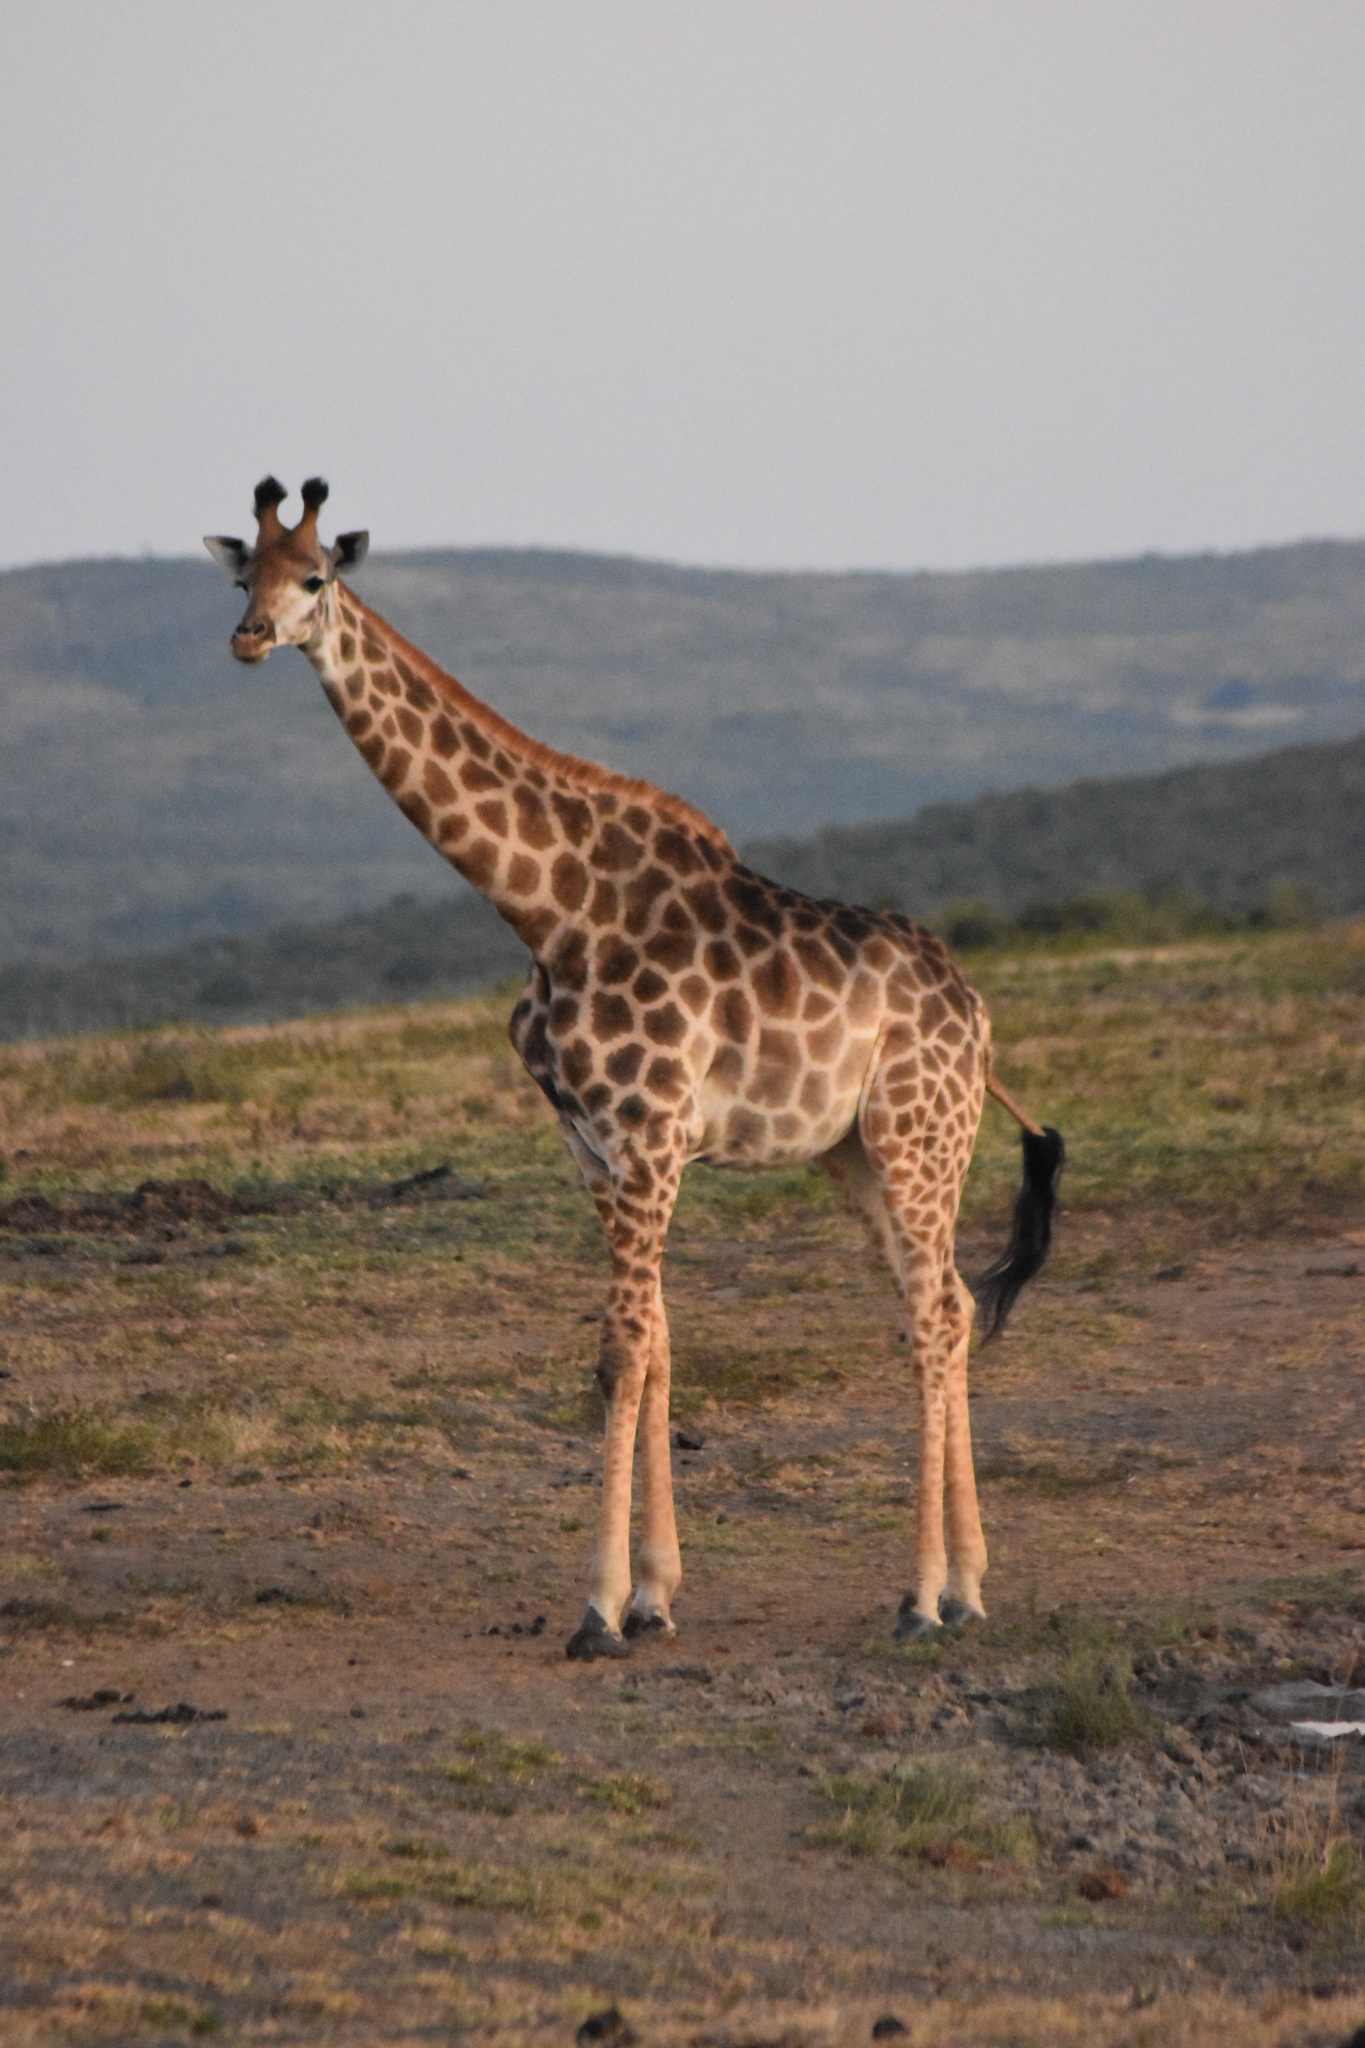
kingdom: Animalia
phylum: Chordata
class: Mammalia
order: Artiodactyla
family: Giraffidae
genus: Giraffa
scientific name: Giraffa giraffa
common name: Southern giraffe
